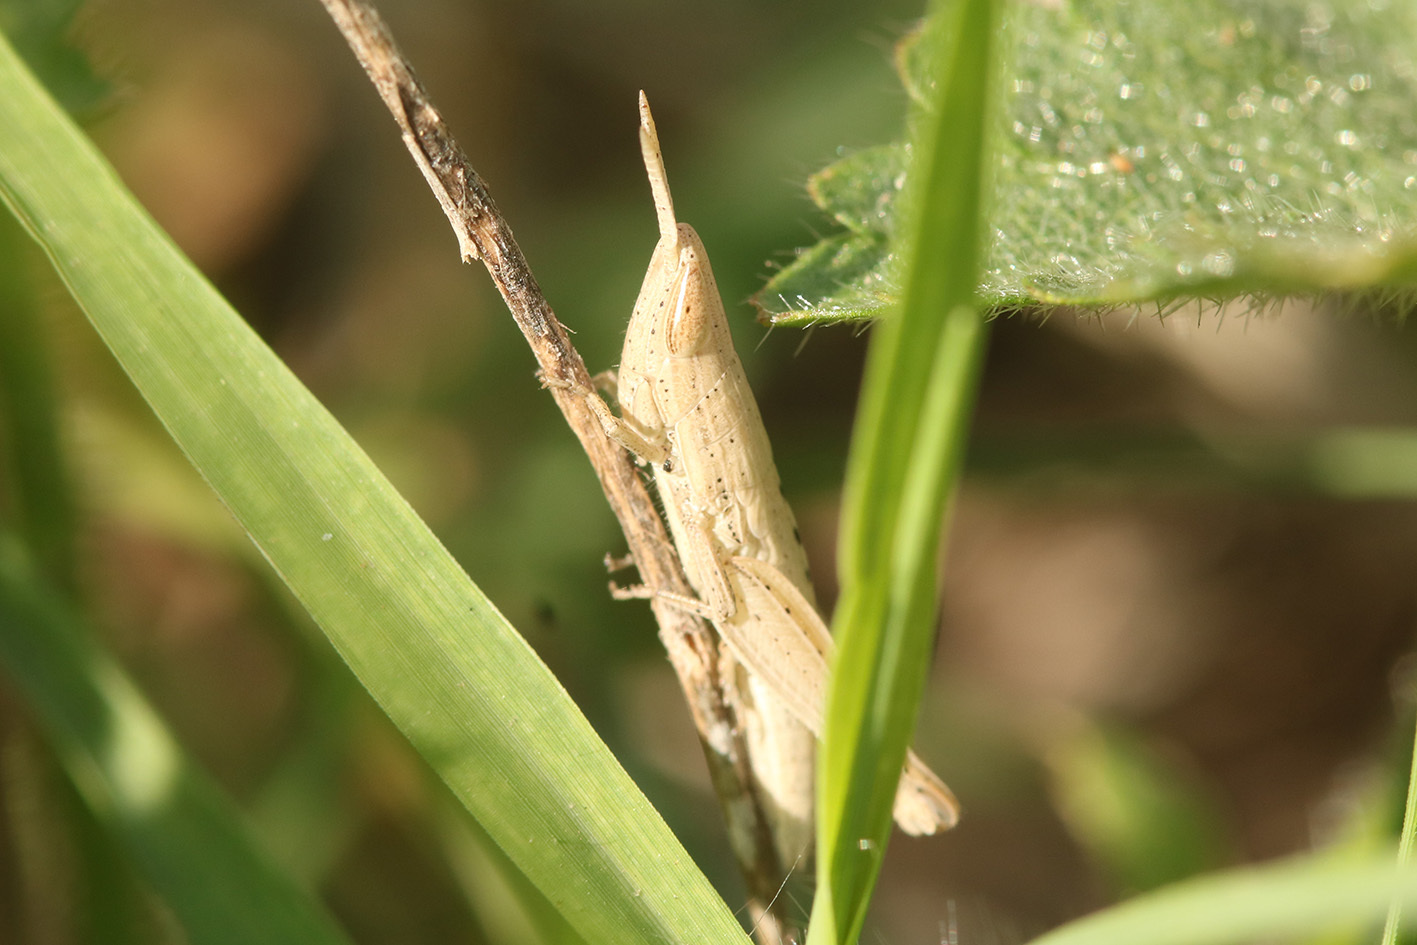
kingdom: Animalia
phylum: Arthropoda
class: Insecta
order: Orthoptera
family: Acrididae
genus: Laplatacris
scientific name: Laplatacris dispar
